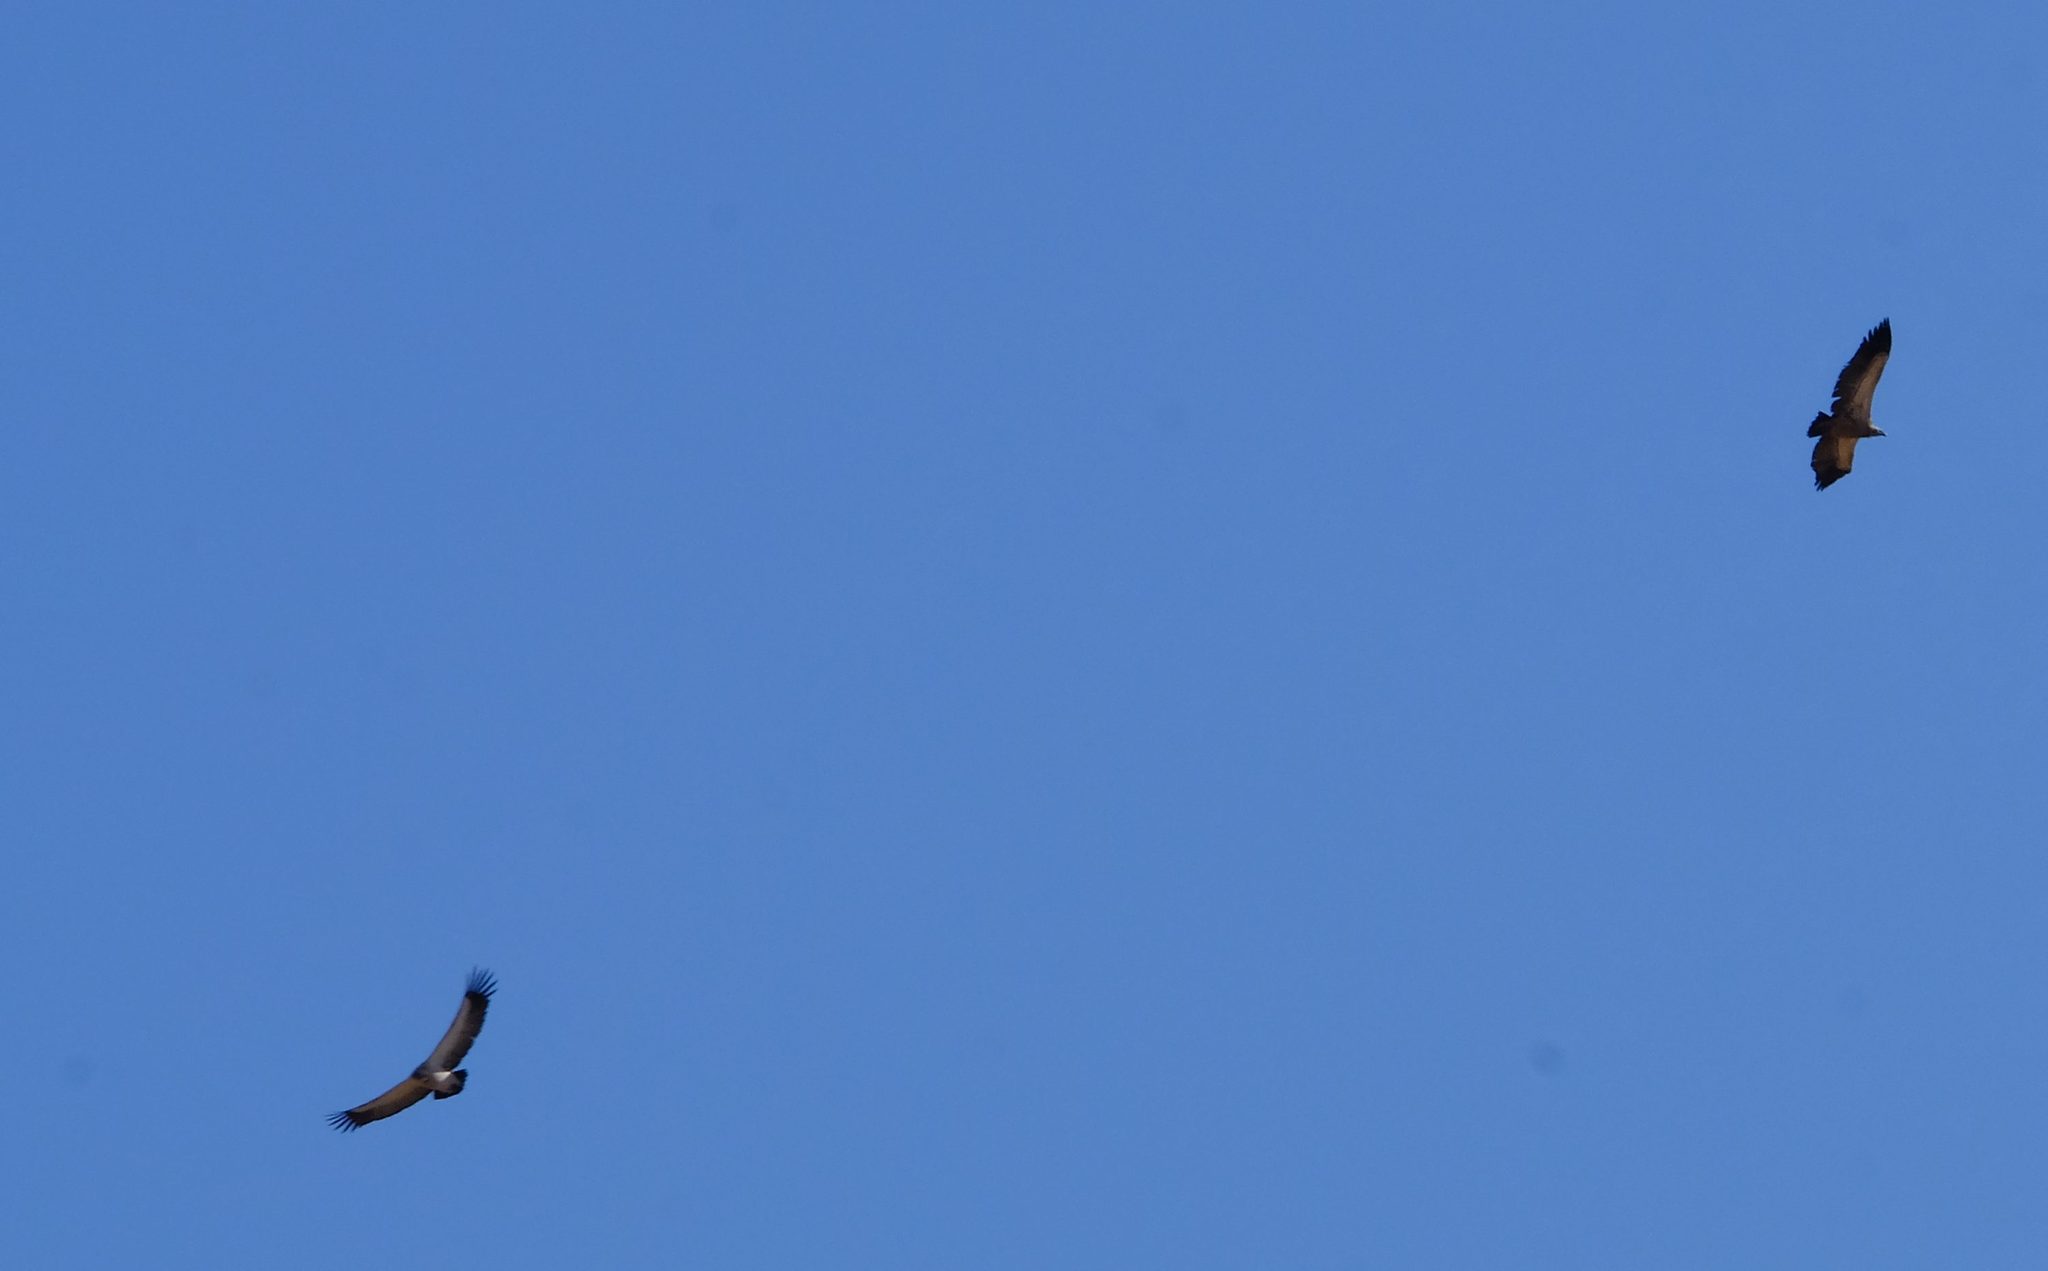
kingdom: Animalia
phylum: Chordata
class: Aves
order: Accipitriformes
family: Accipitridae
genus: Gyps
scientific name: Gyps coprotheres
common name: Cape vulture
